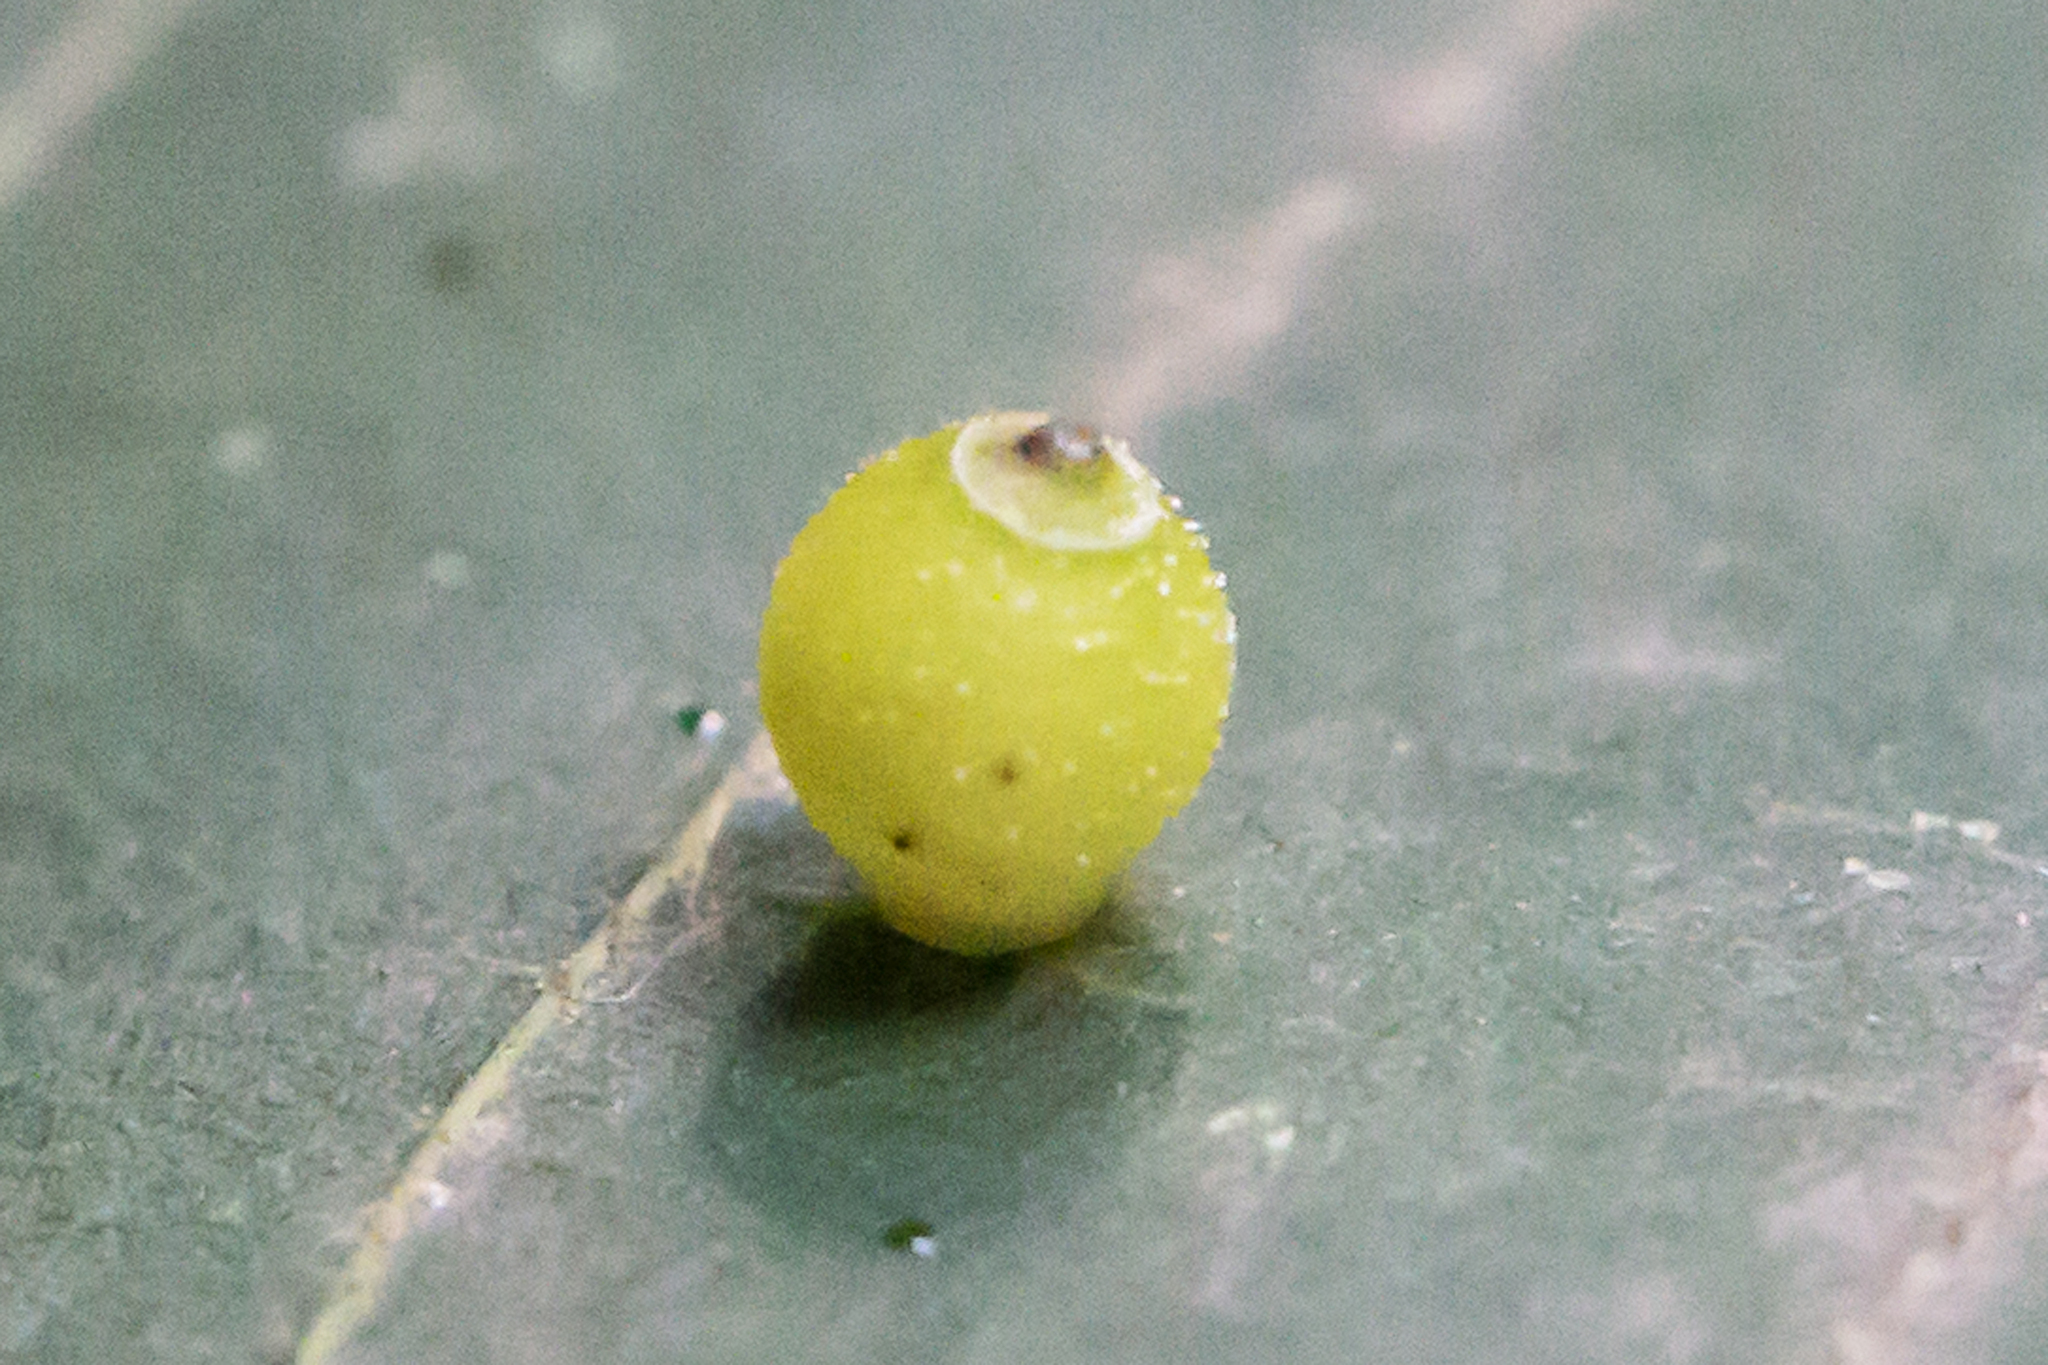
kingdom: Animalia
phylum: Arthropoda
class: Insecta
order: Diptera
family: Cecidomyiidae
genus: Caryomyia
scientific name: Caryomyia viscidolium
